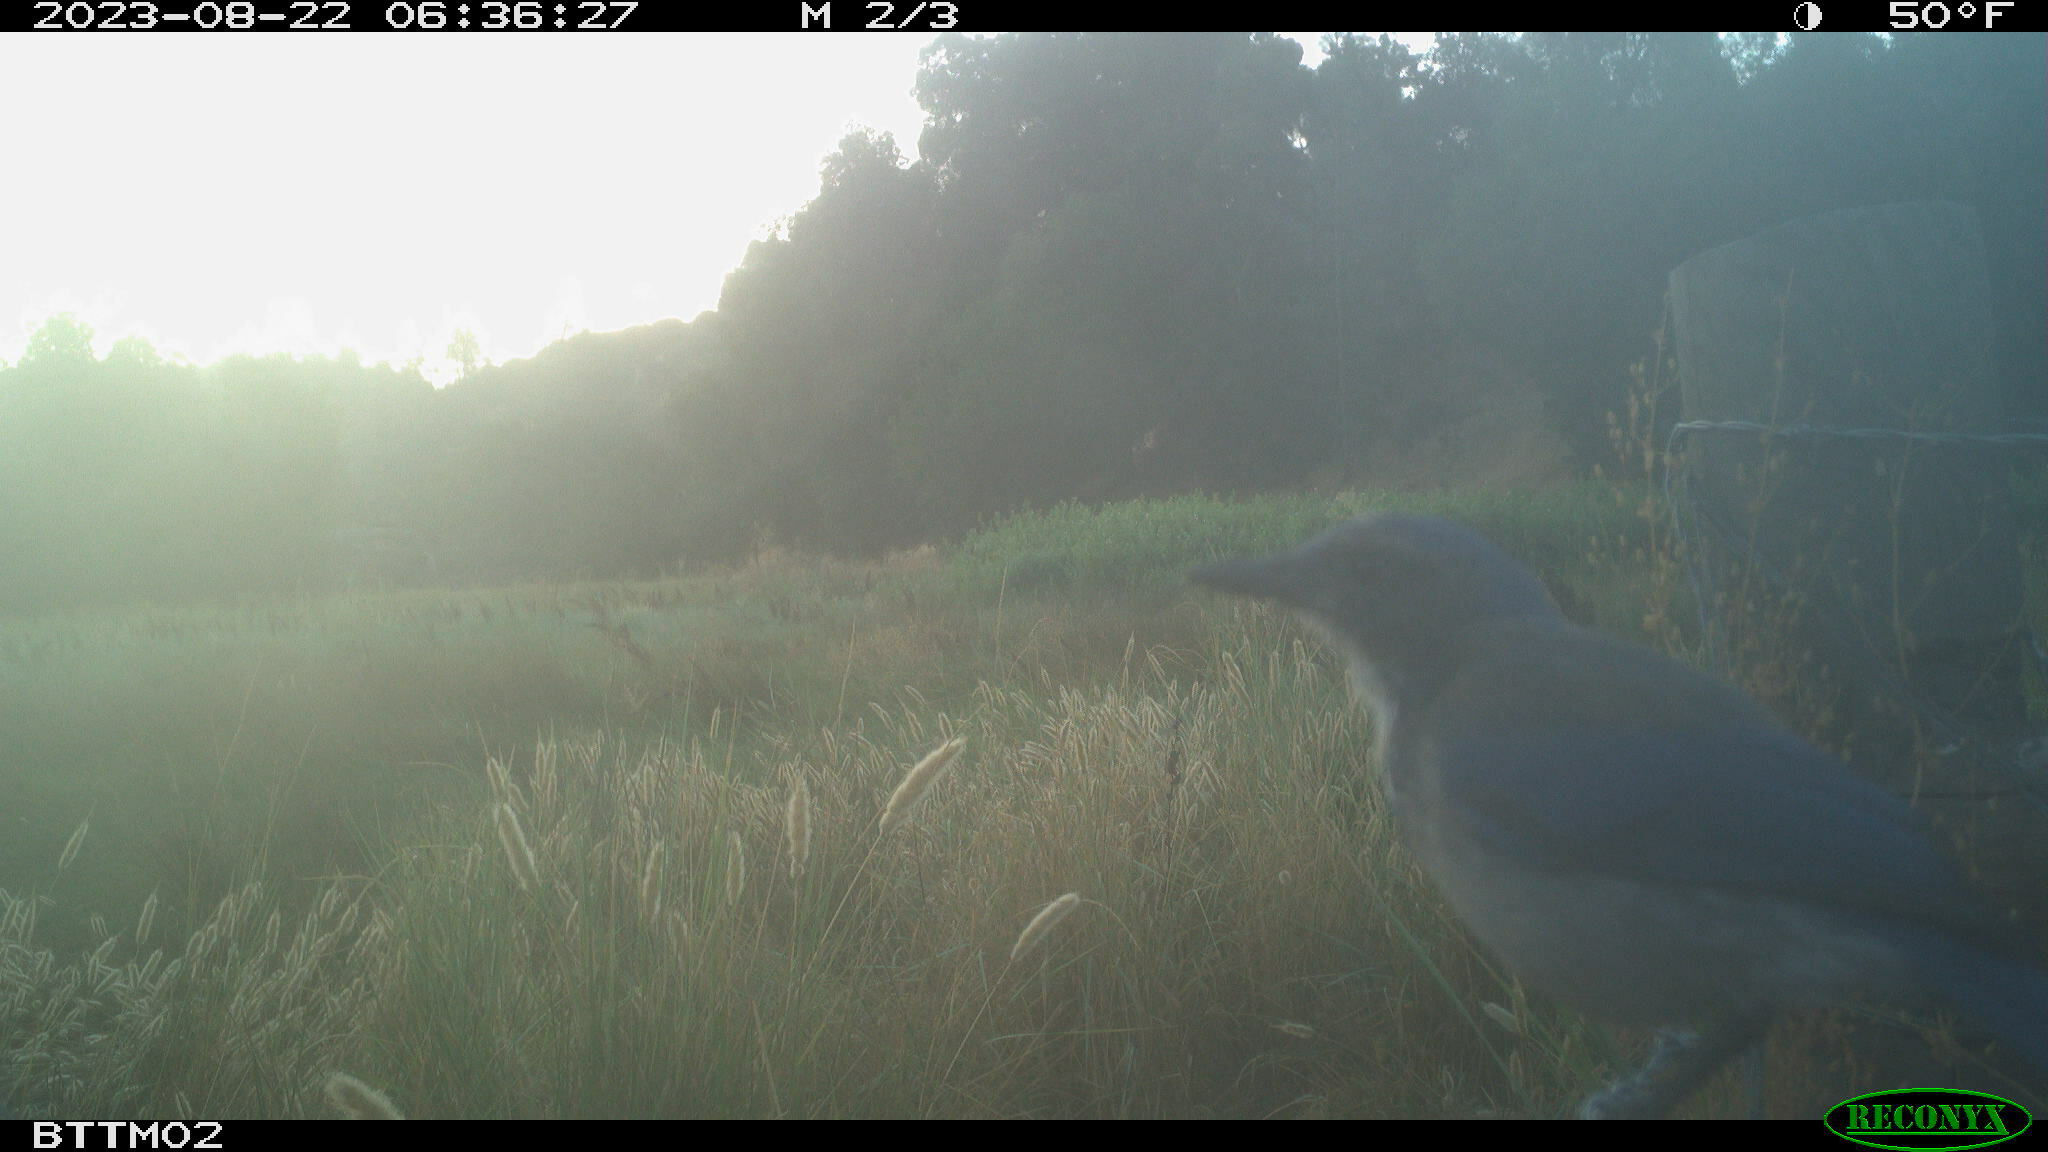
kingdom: Animalia
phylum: Chordata
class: Aves
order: Passeriformes
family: Corvidae
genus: Aphelocoma
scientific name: Aphelocoma californica
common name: California scrub-jay
